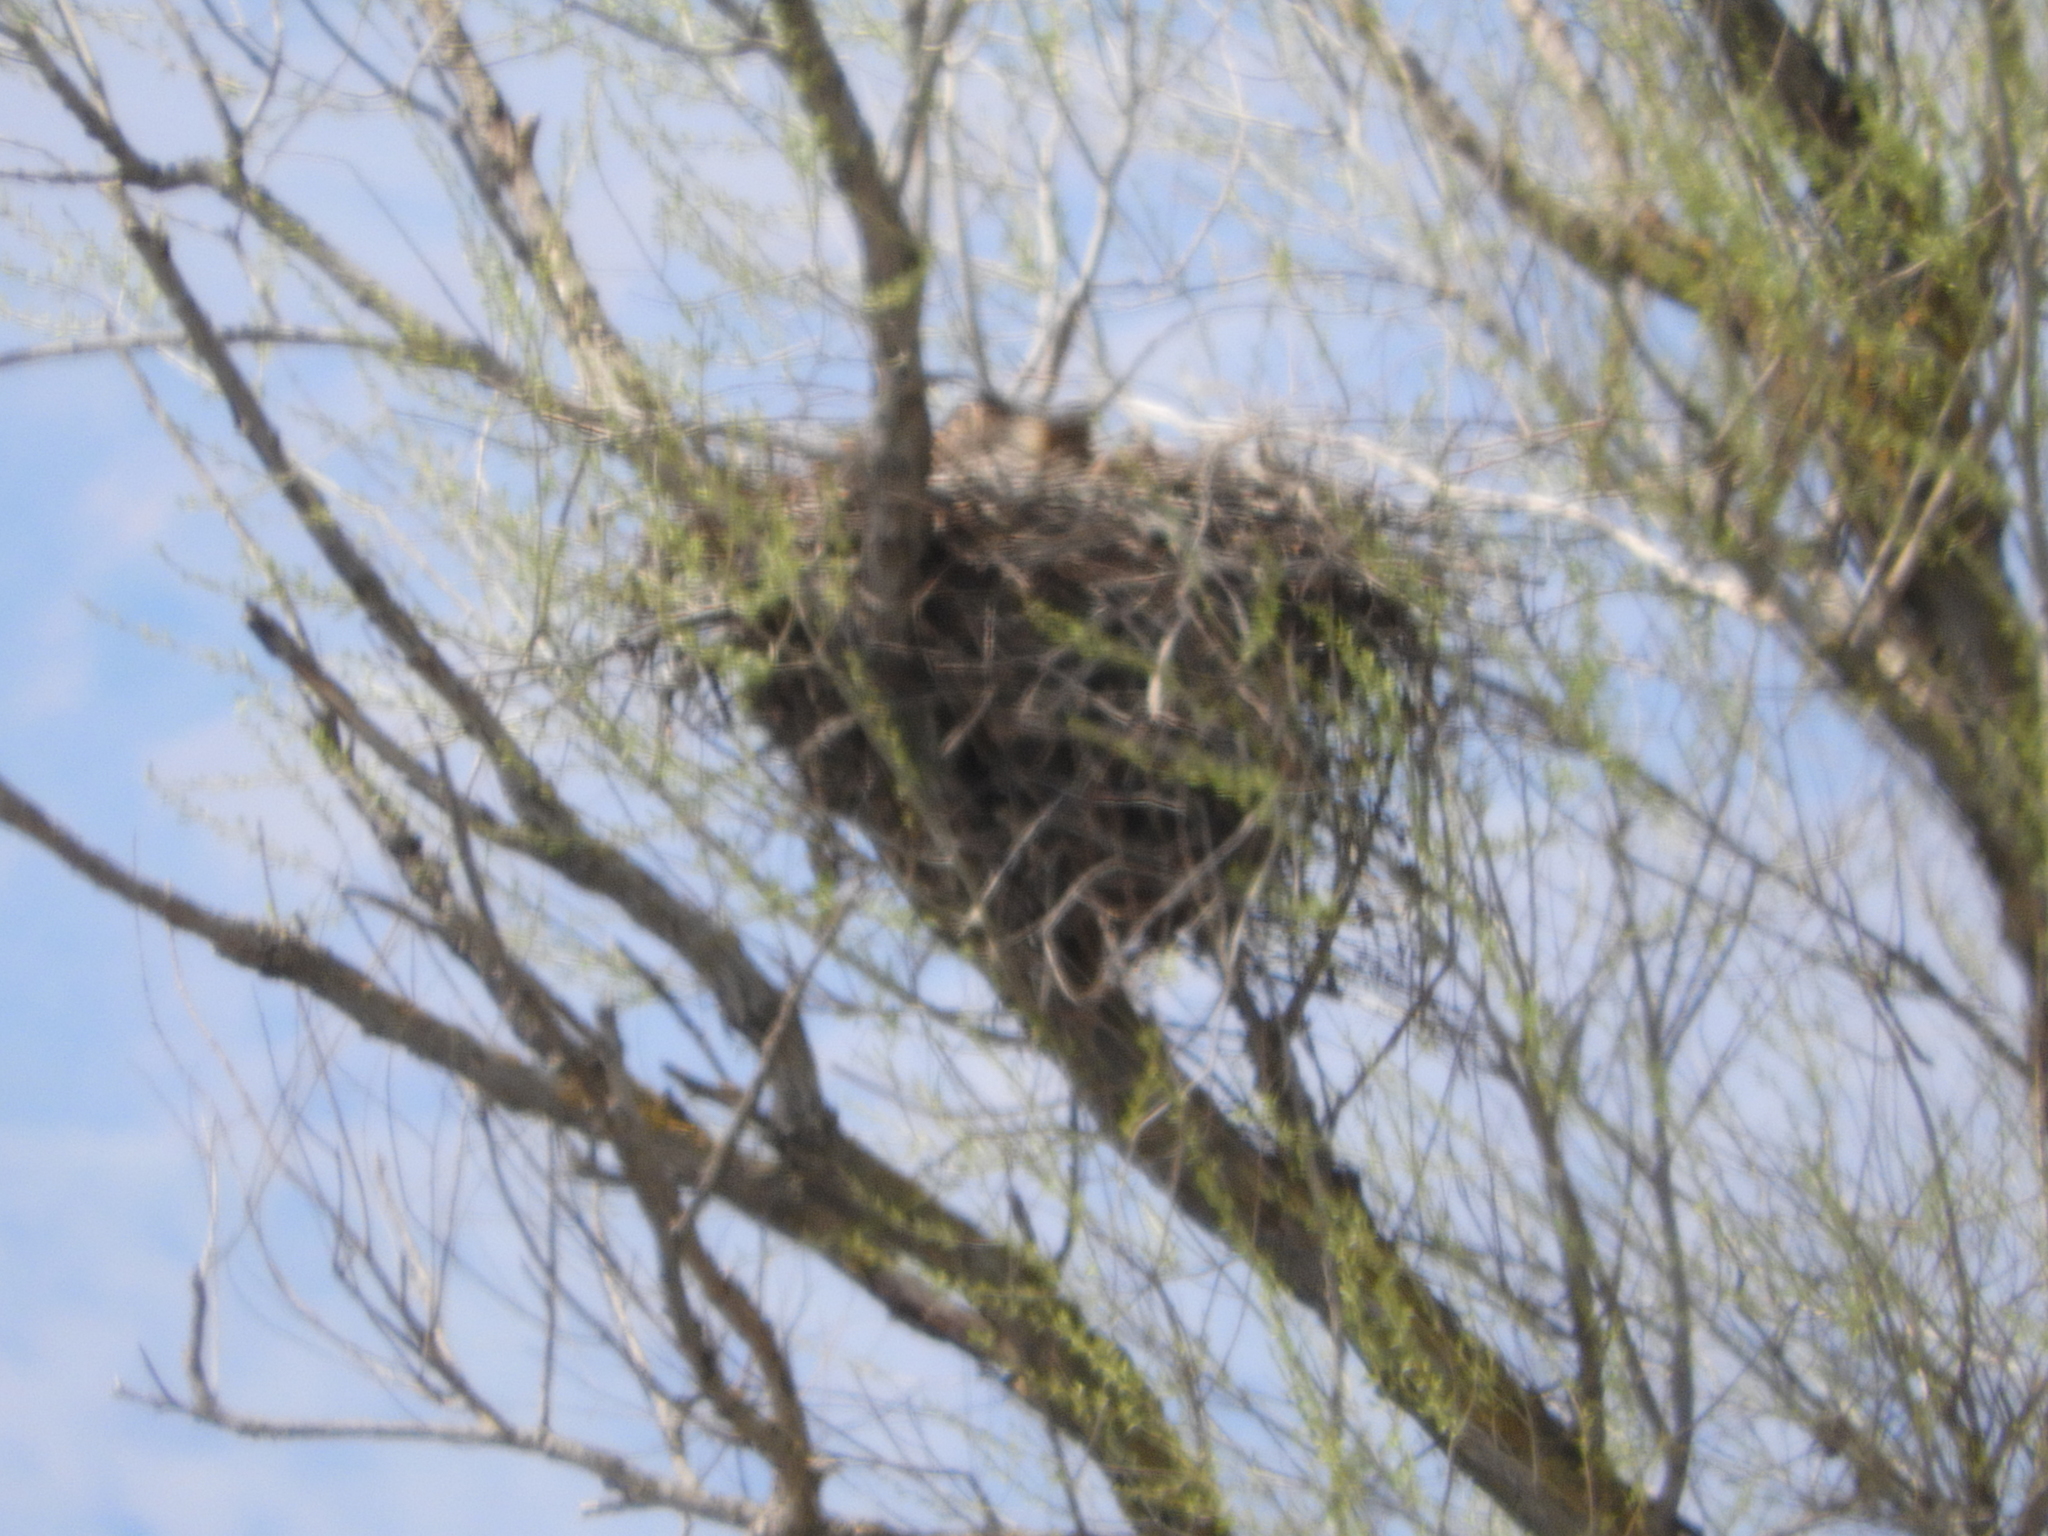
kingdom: Animalia
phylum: Chordata
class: Aves
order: Strigiformes
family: Strigidae
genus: Bubo
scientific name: Bubo virginianus
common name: Great horned owl
